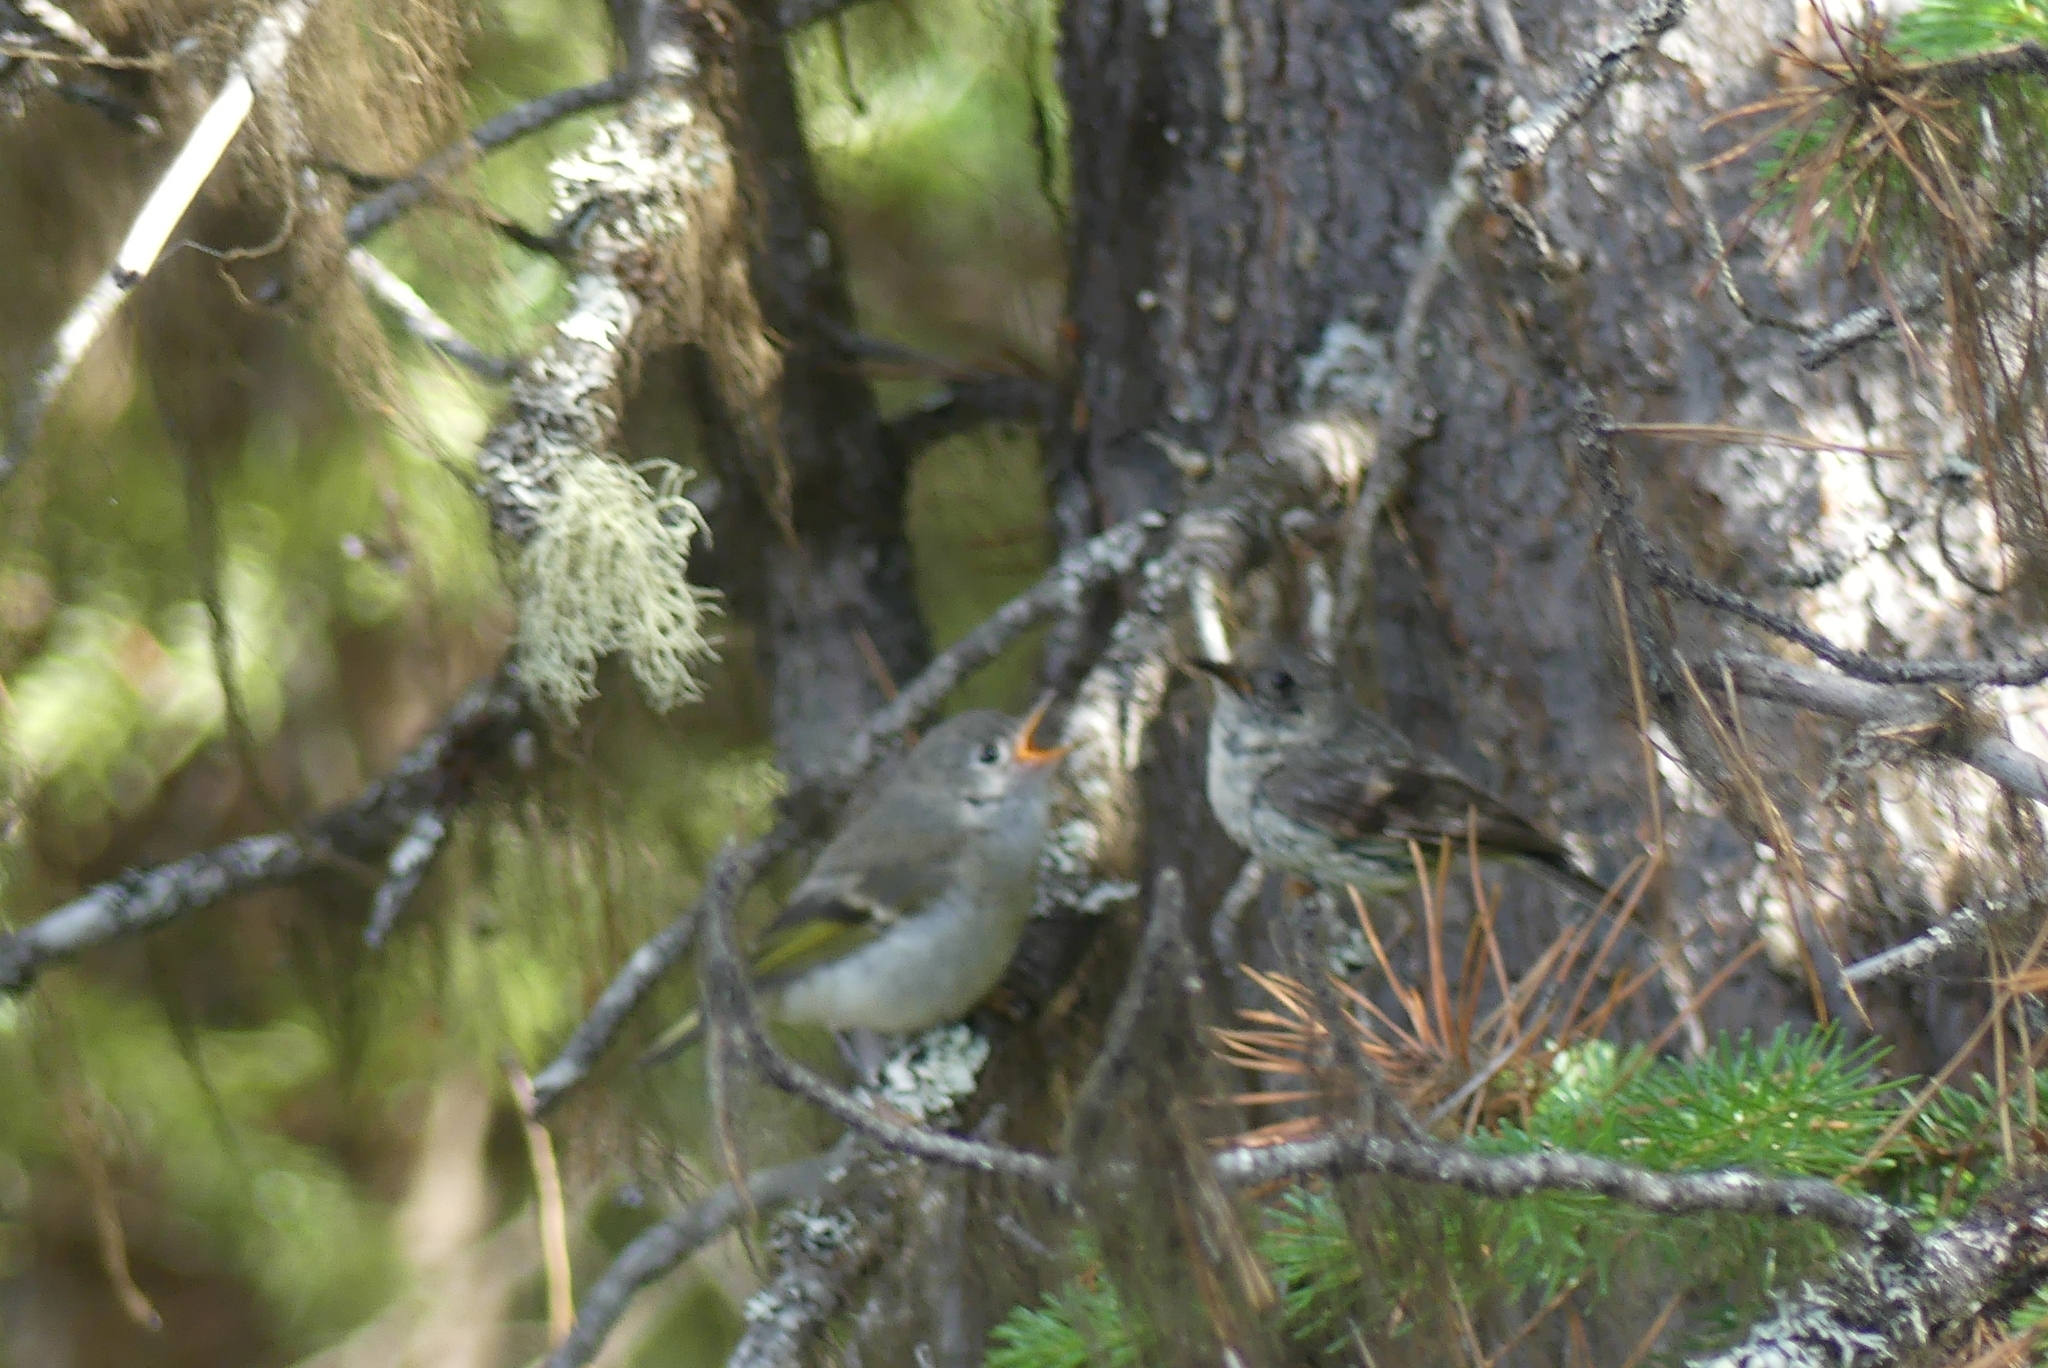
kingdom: Animalia
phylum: Chordata
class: Aves
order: Passeriformes
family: Regulidae
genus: Regulus
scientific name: Regulus calendula
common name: Ruby-crowned kinglet
